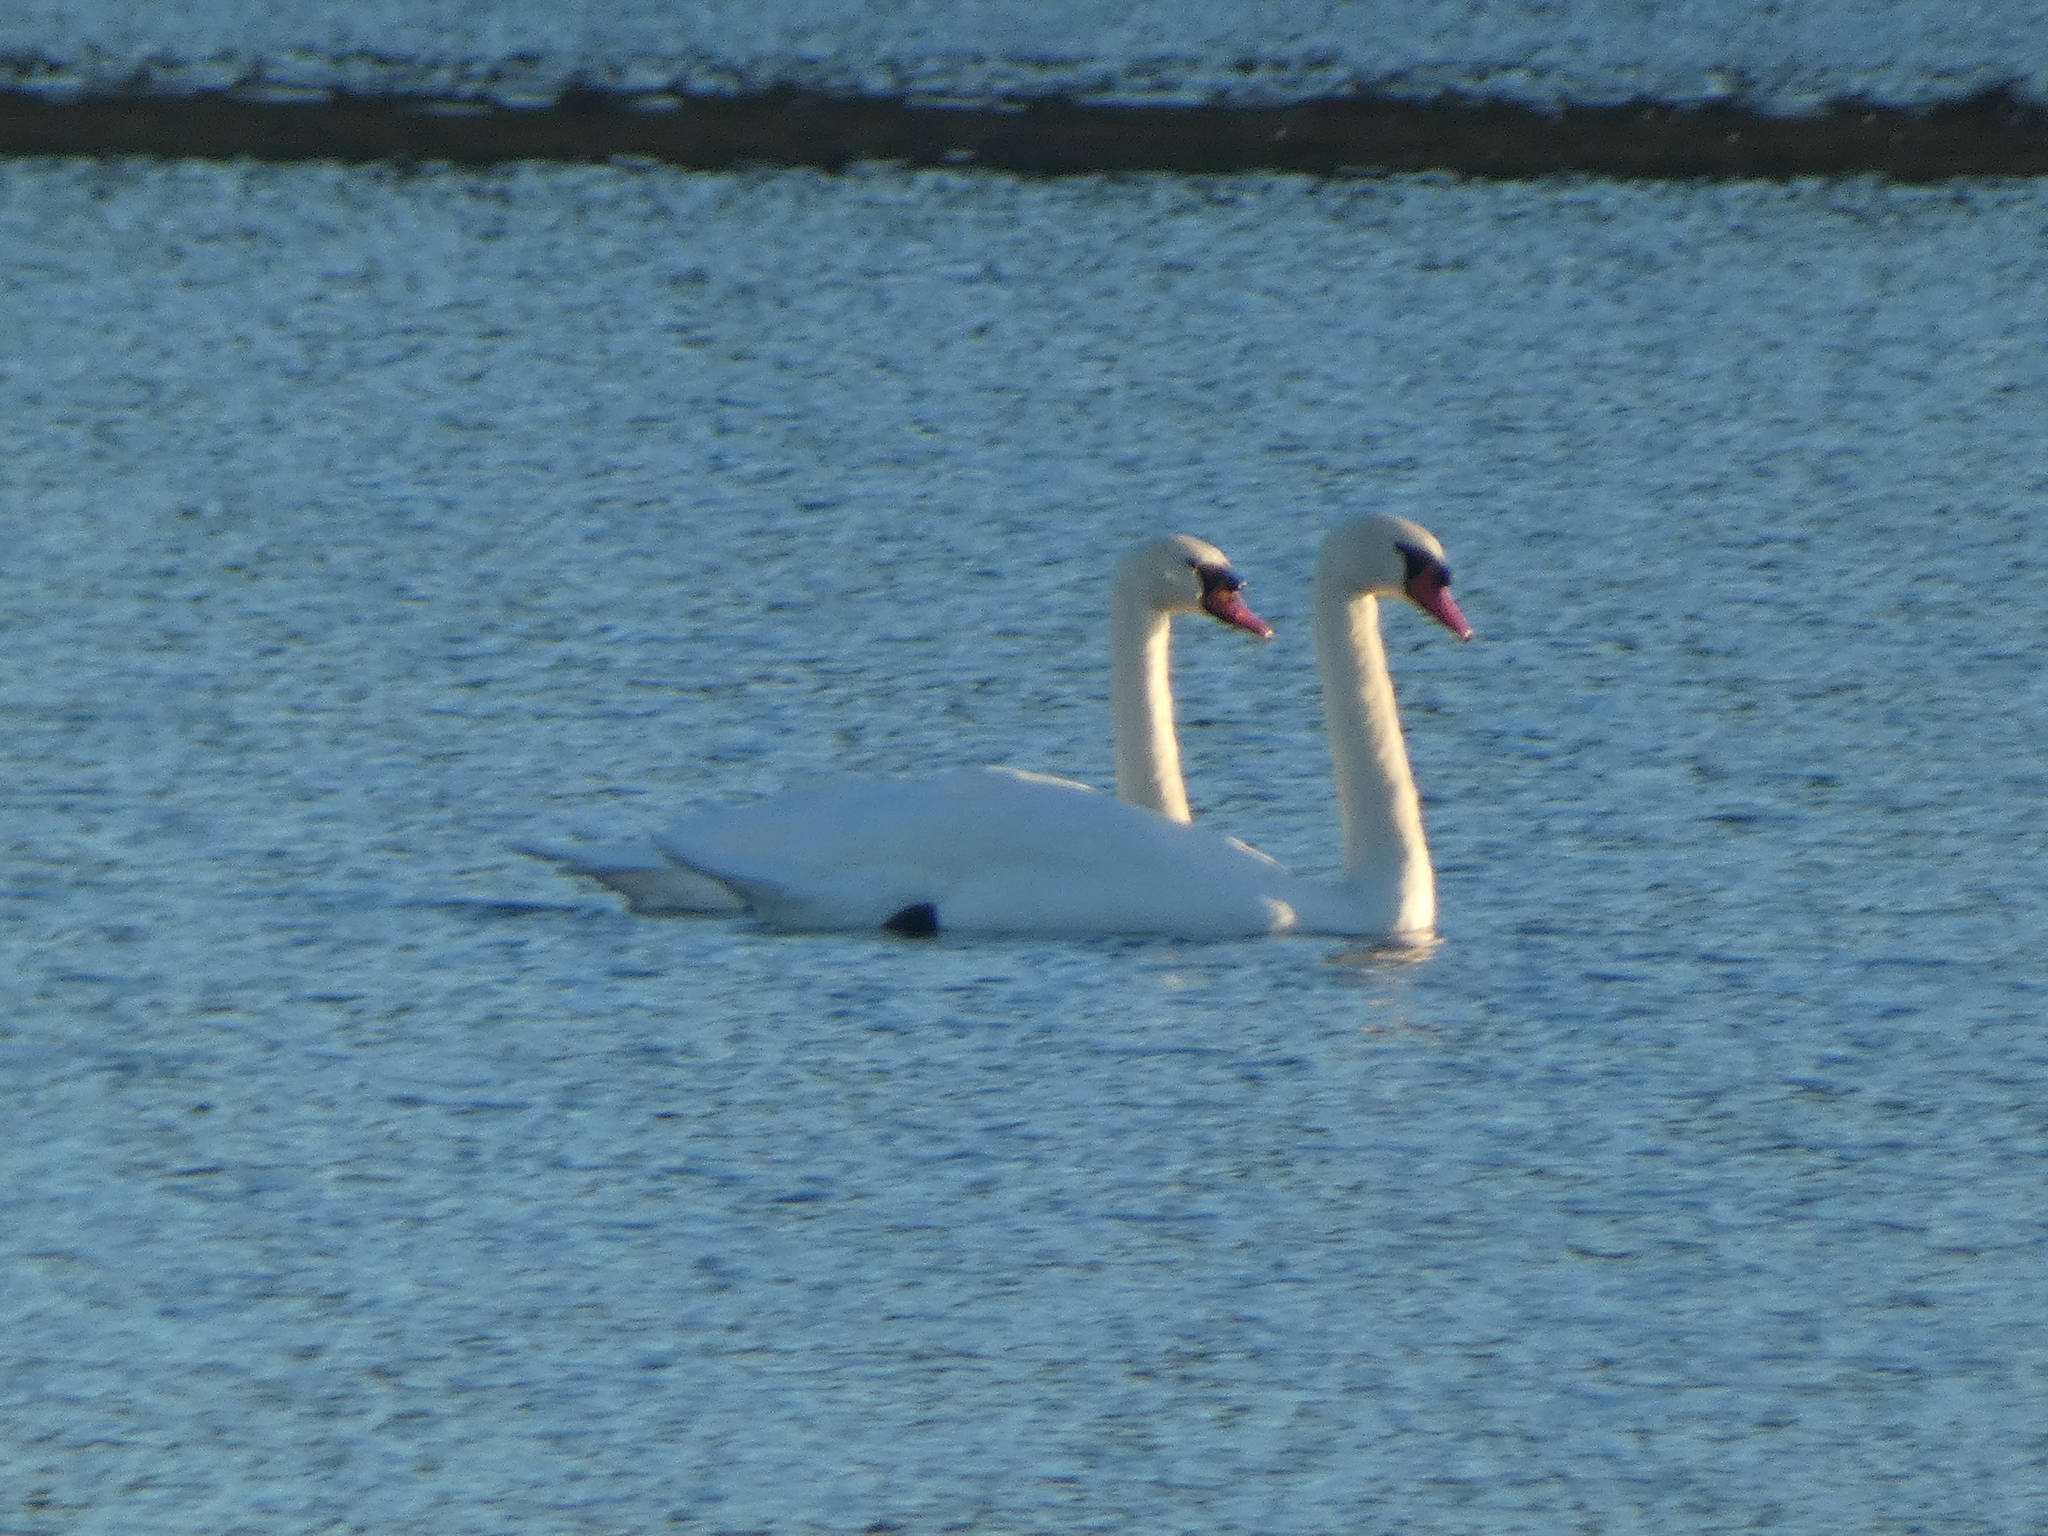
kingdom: Animalia
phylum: Chordata
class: Aves
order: Anseriformes
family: Anatidae
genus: Cygnus
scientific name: Cygnus olor
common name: Mute swan
